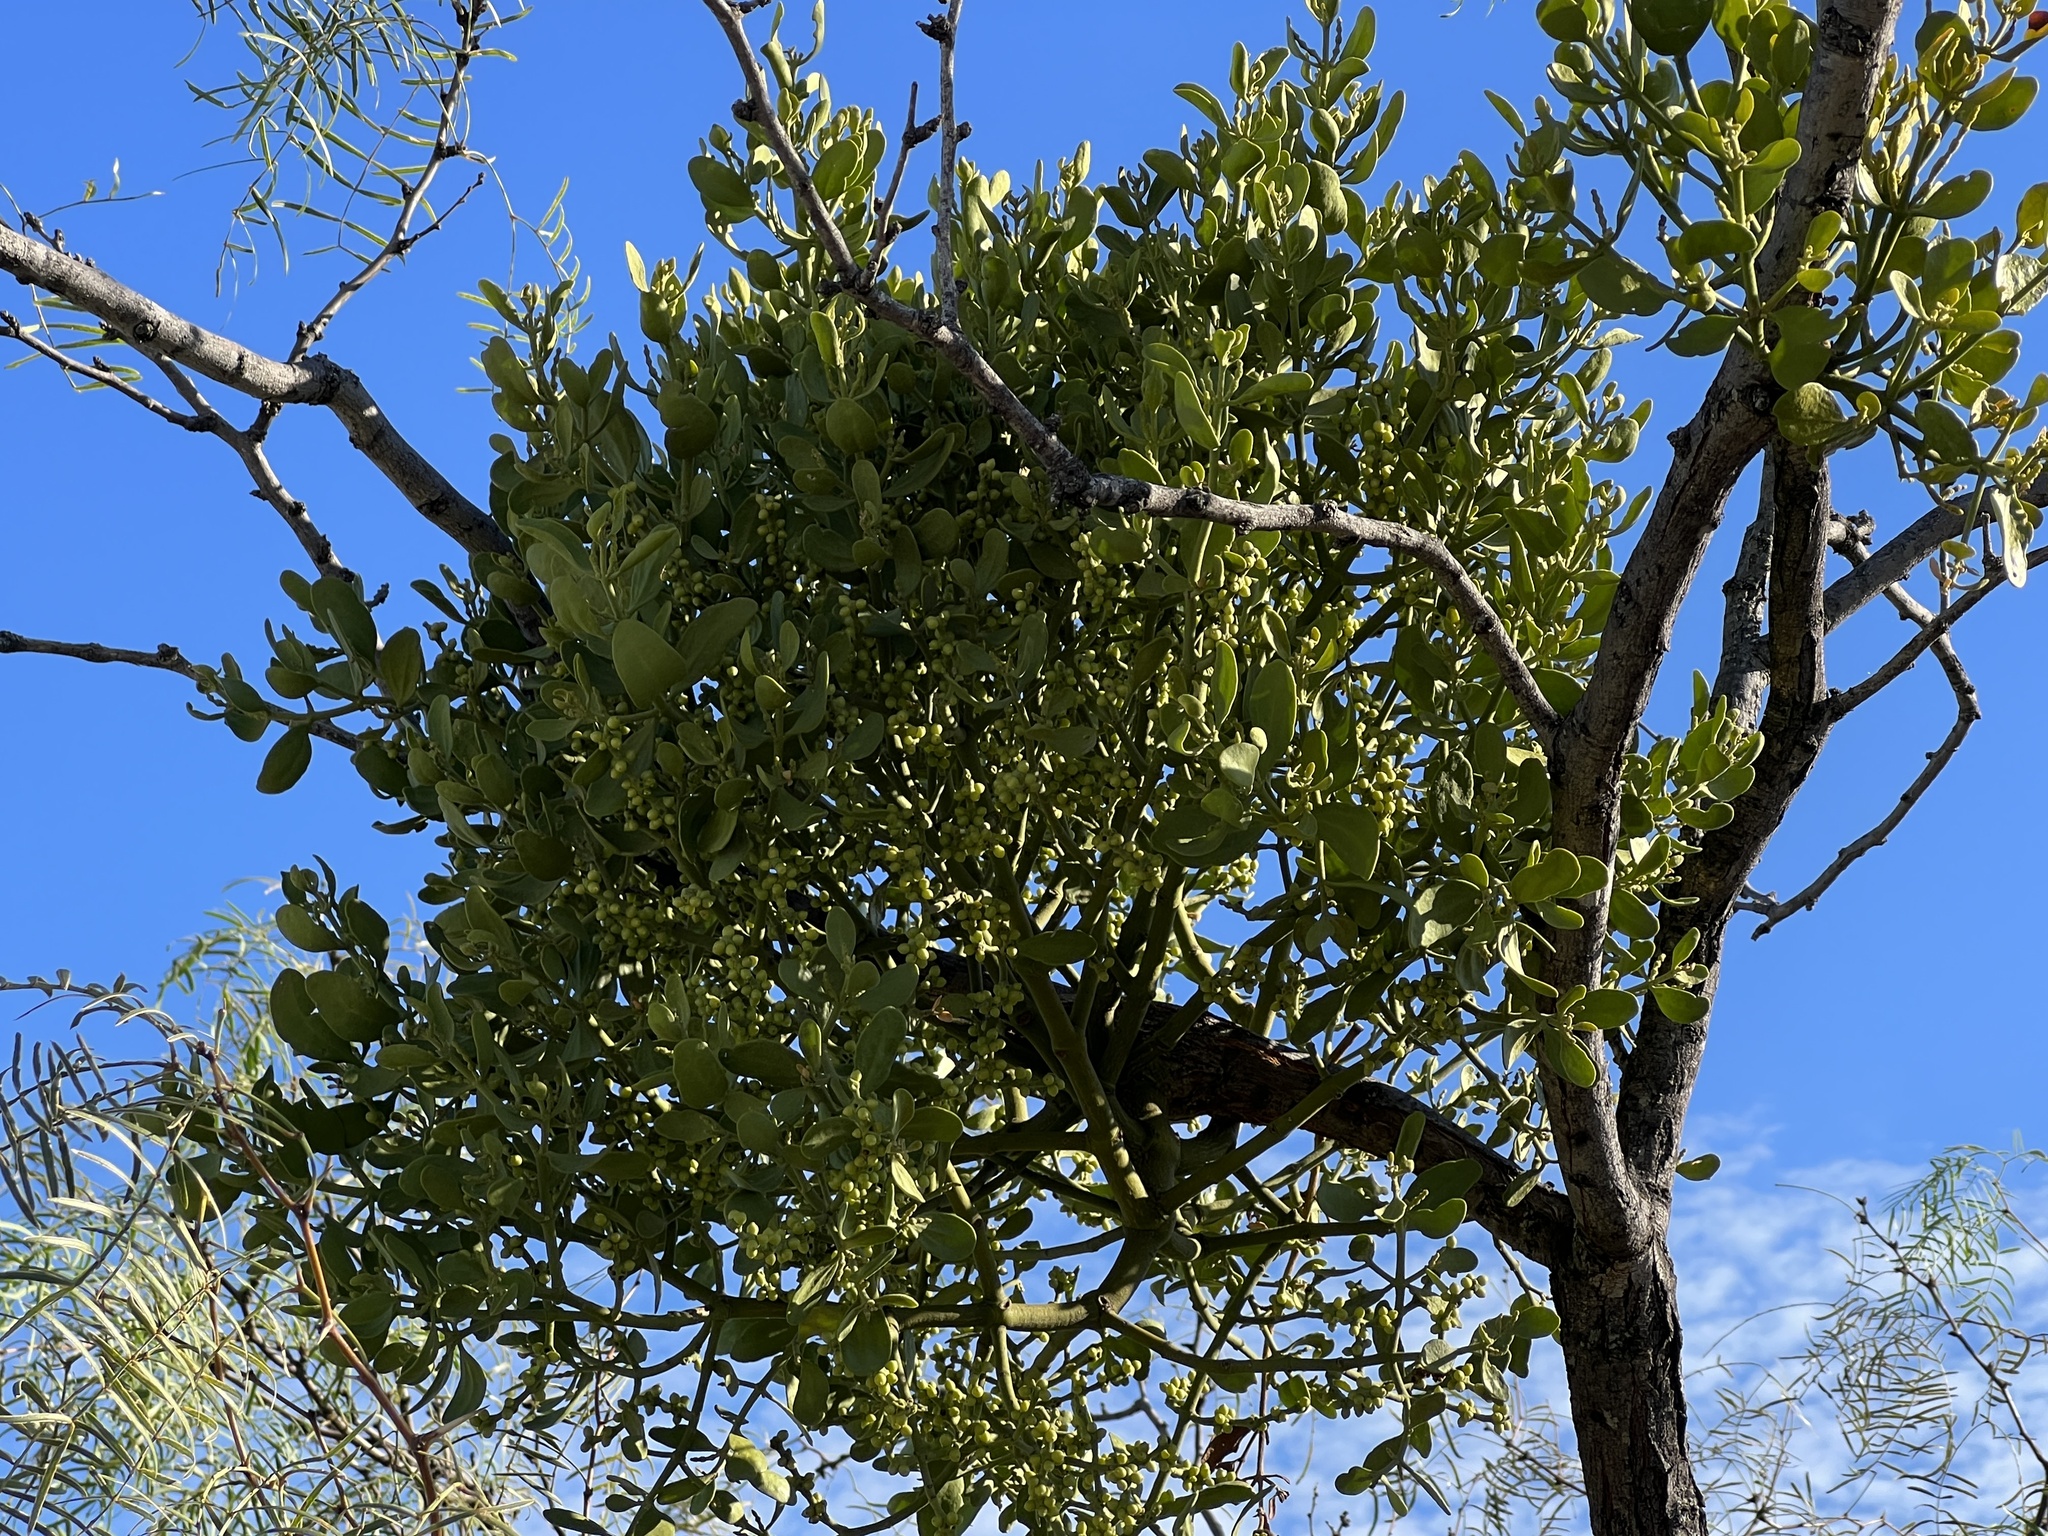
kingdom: Plantae
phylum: Tracheophyta
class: Magnoliopsida
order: Santalales
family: Viscaceae
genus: Phoradendron
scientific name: Phoradendron leucarpum
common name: Pacific mistletoe
